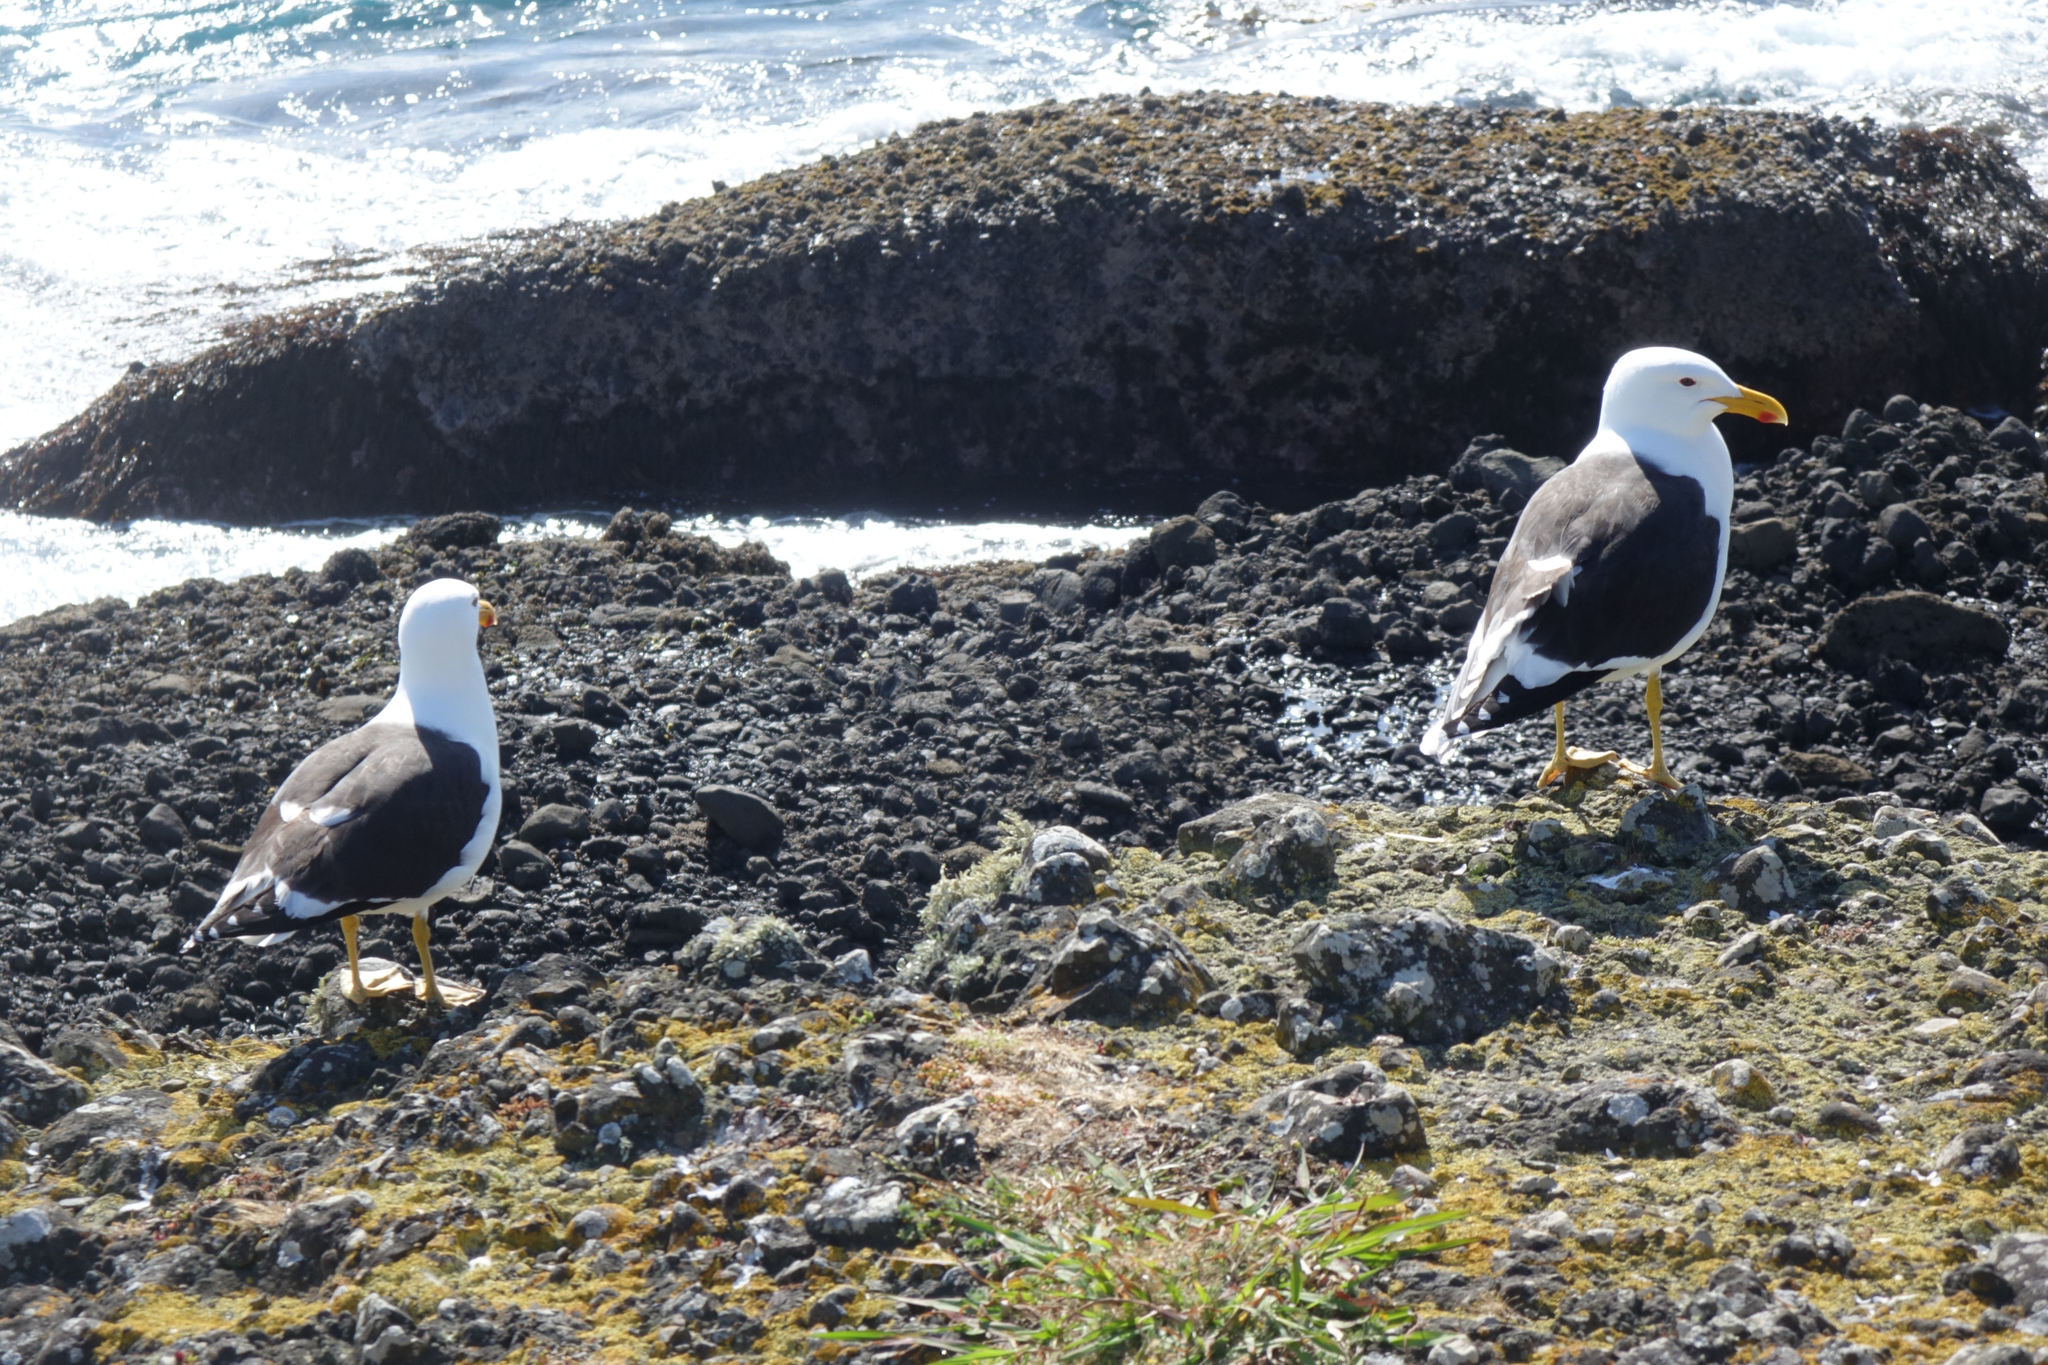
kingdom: Animalia
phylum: Chordata
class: Aves
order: Charadriiformes
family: Laridae
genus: Larus
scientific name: Larus dominicanus
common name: Kelp gull
